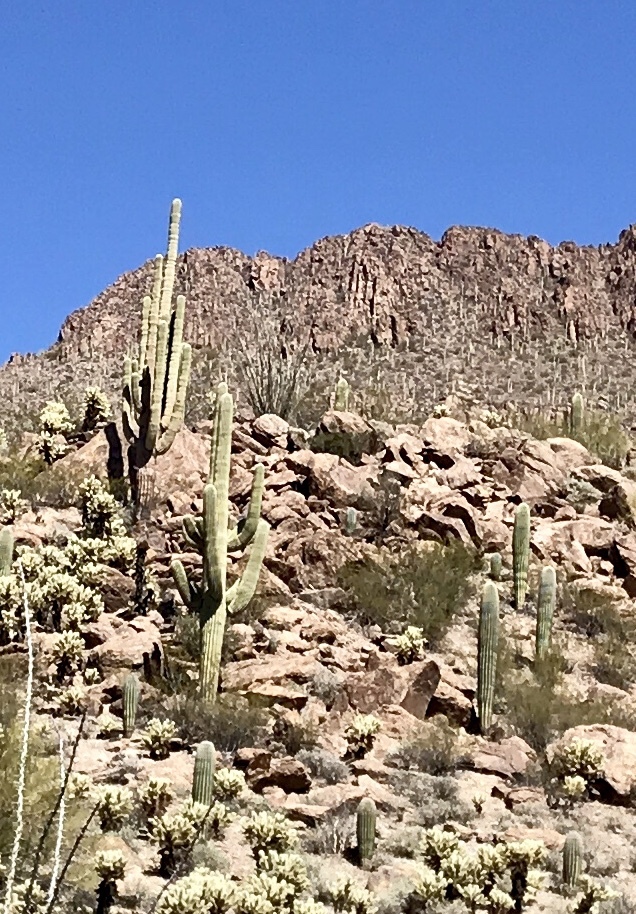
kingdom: Plantae
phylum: Tracheophyta
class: Magnoliopsida
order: Caryophyllales
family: Cactaceae
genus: Carnegiea
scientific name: Carnegiea gigantea
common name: Saguaro
